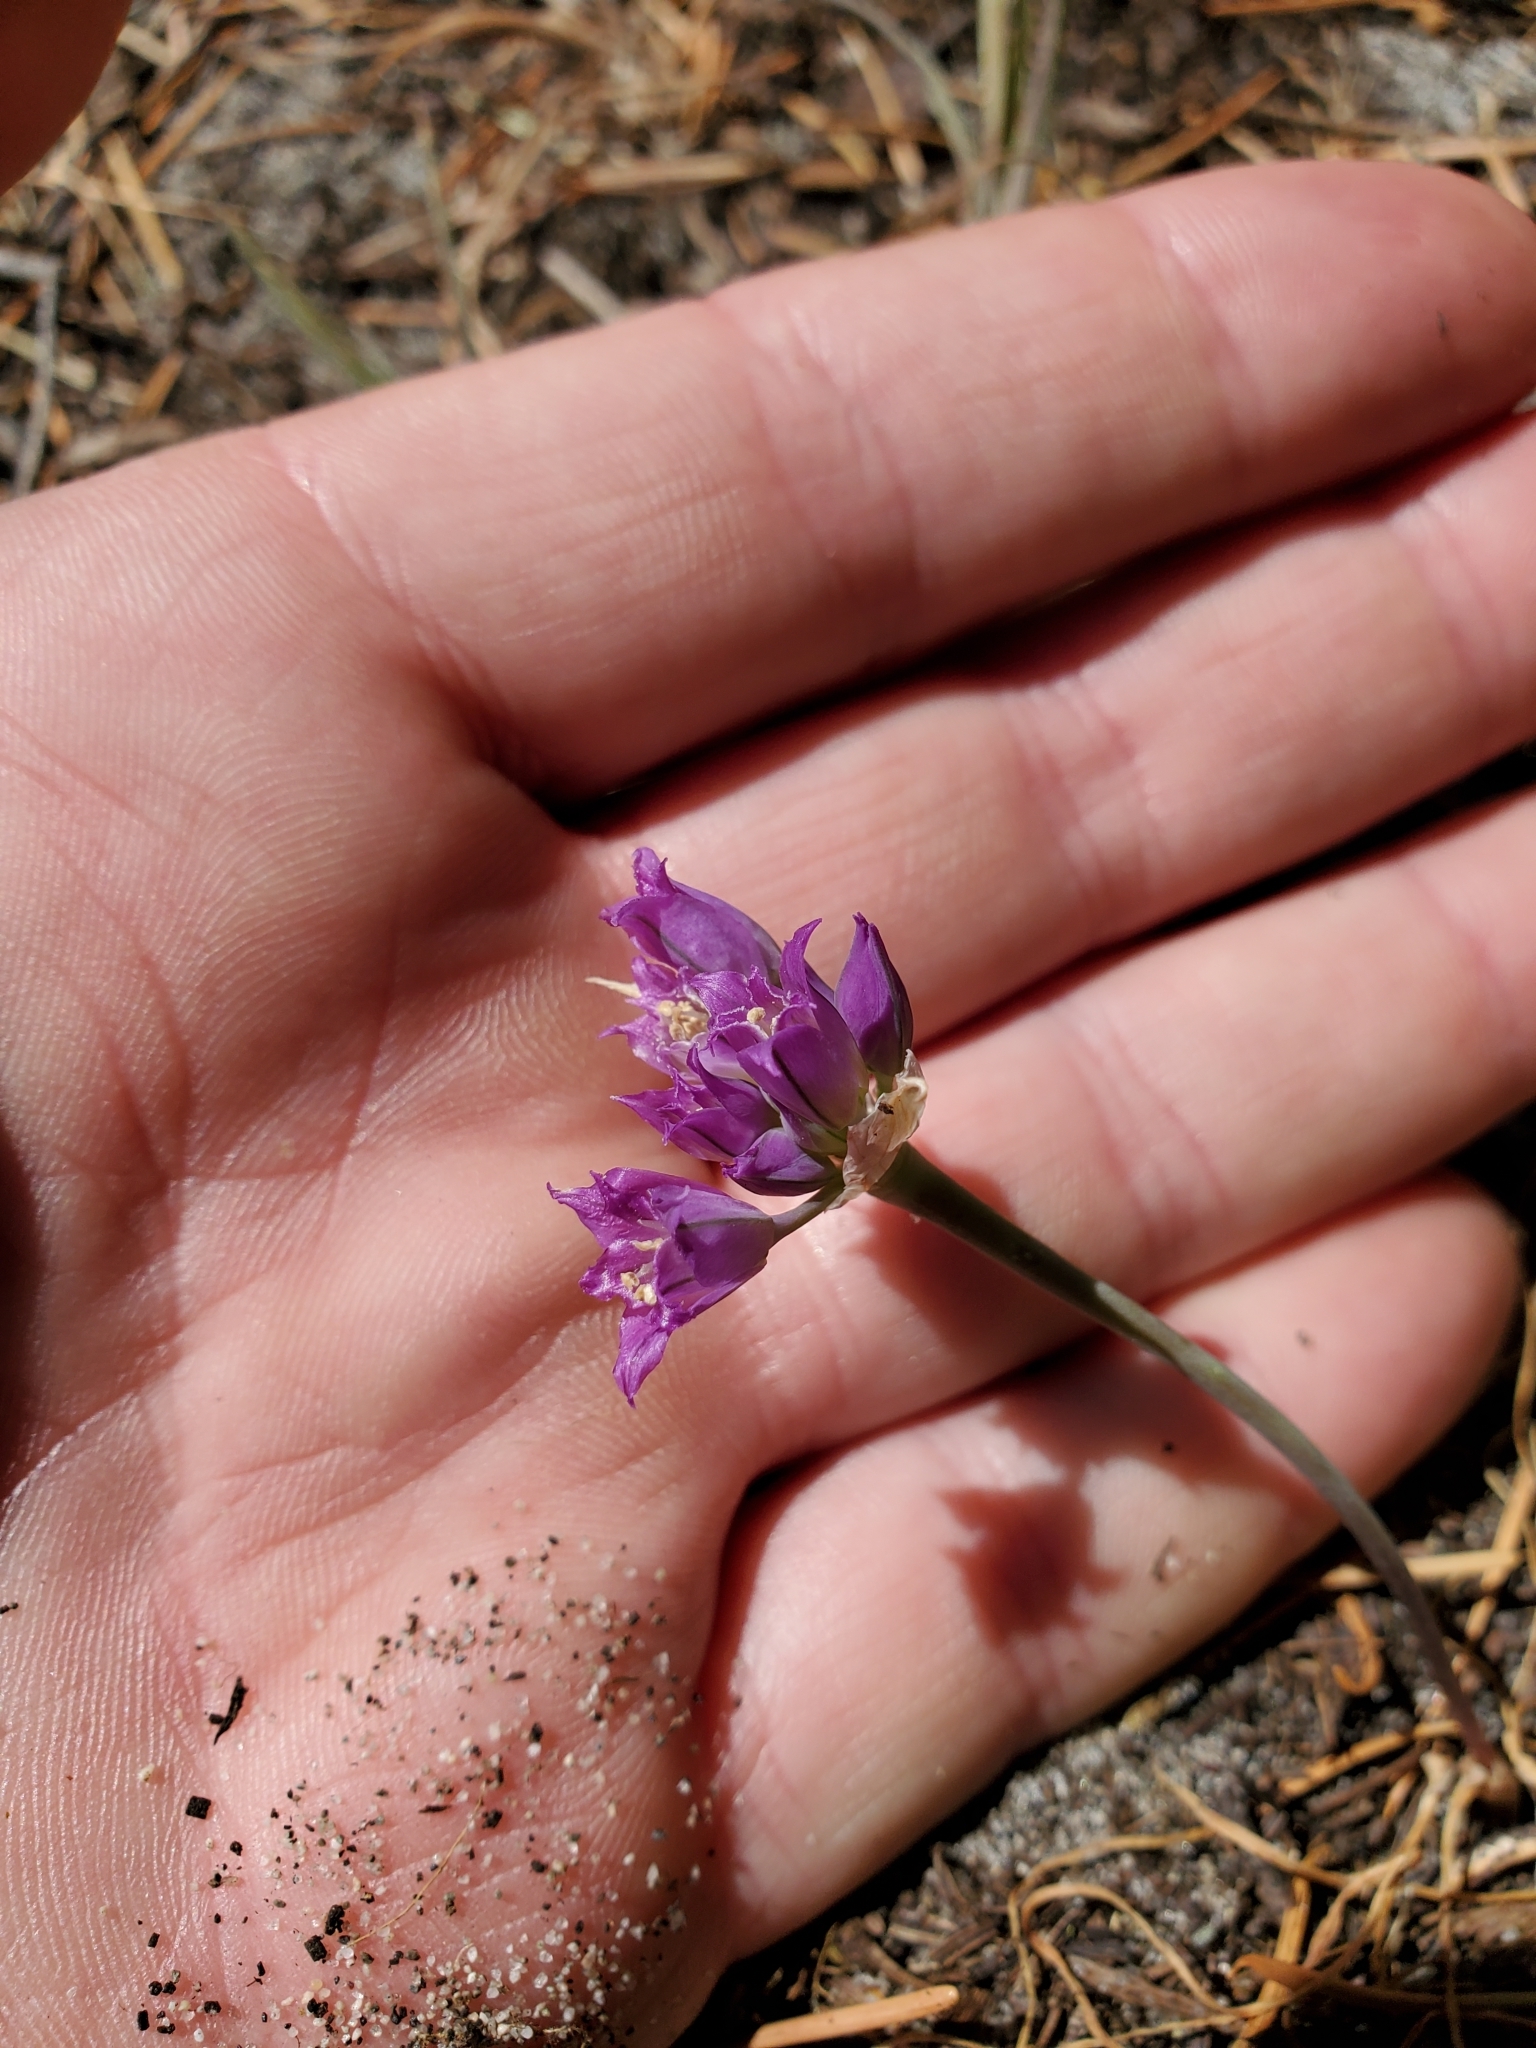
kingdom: Plantae
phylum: Tracheophyta
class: Liliopsida
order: Asparagales
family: Amaryllidaceae
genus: Allium
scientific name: Allium acuminatum
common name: Hooker's onion
